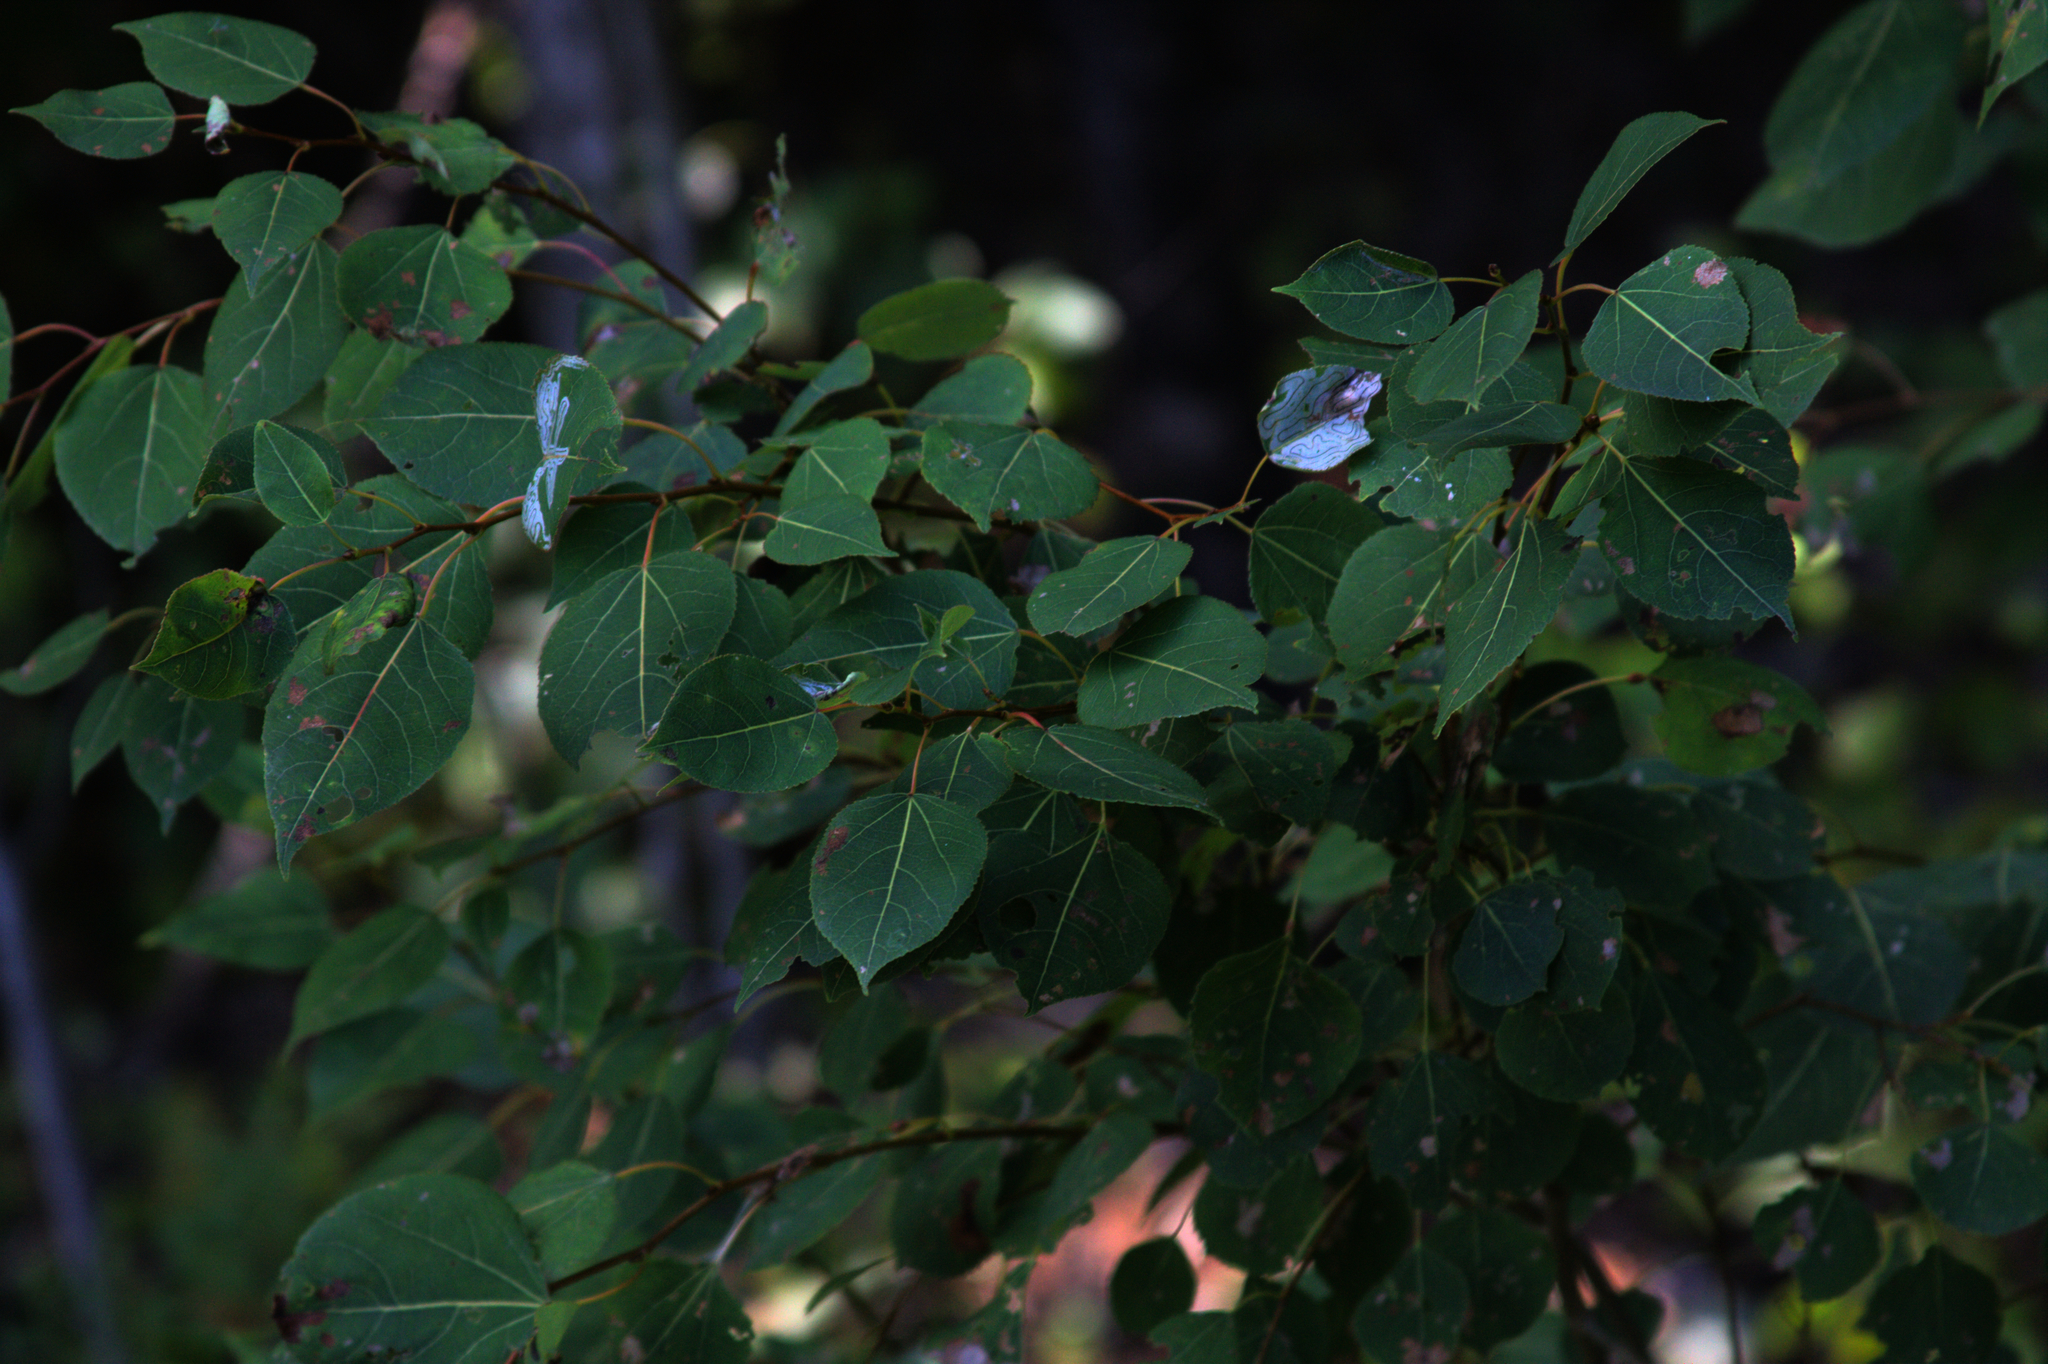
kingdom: Plantae
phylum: Tracheophyta
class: Magnoliopsida
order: Malpighiales
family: Salicaceae
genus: Populus
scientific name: Populus tremuloides
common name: Quaking aspen
